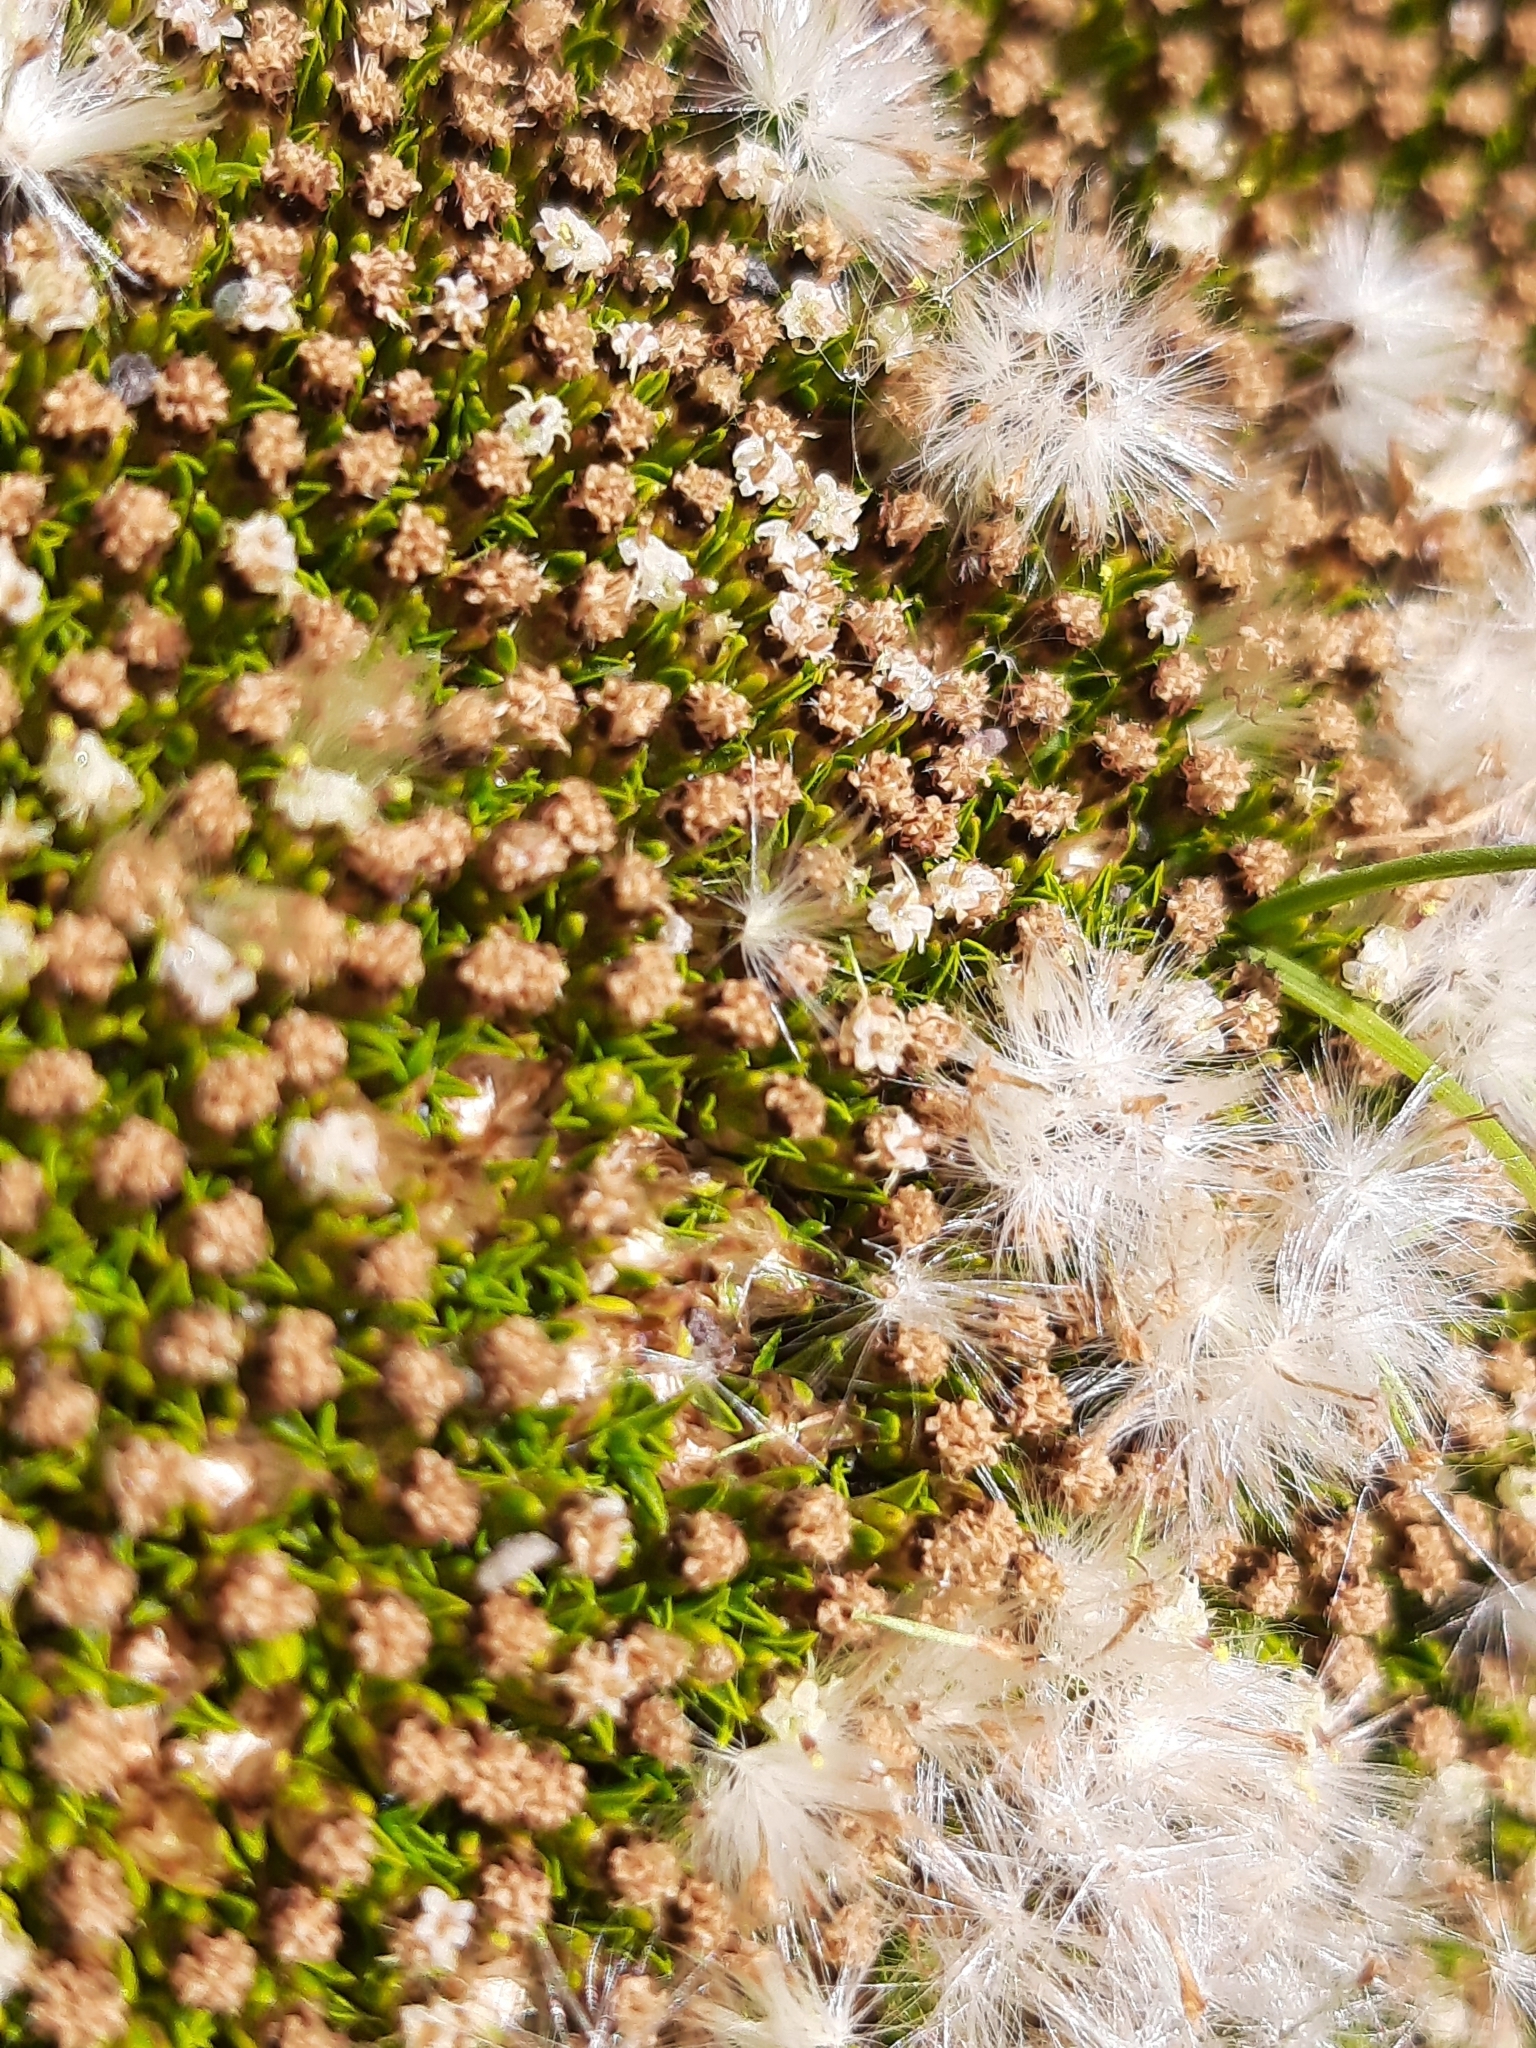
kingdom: Plantae
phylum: Tracheophyta
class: Magnoliopsida
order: Asterales
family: Asteraceae
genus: Raoulia
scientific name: Raoulia tenuicaulis
